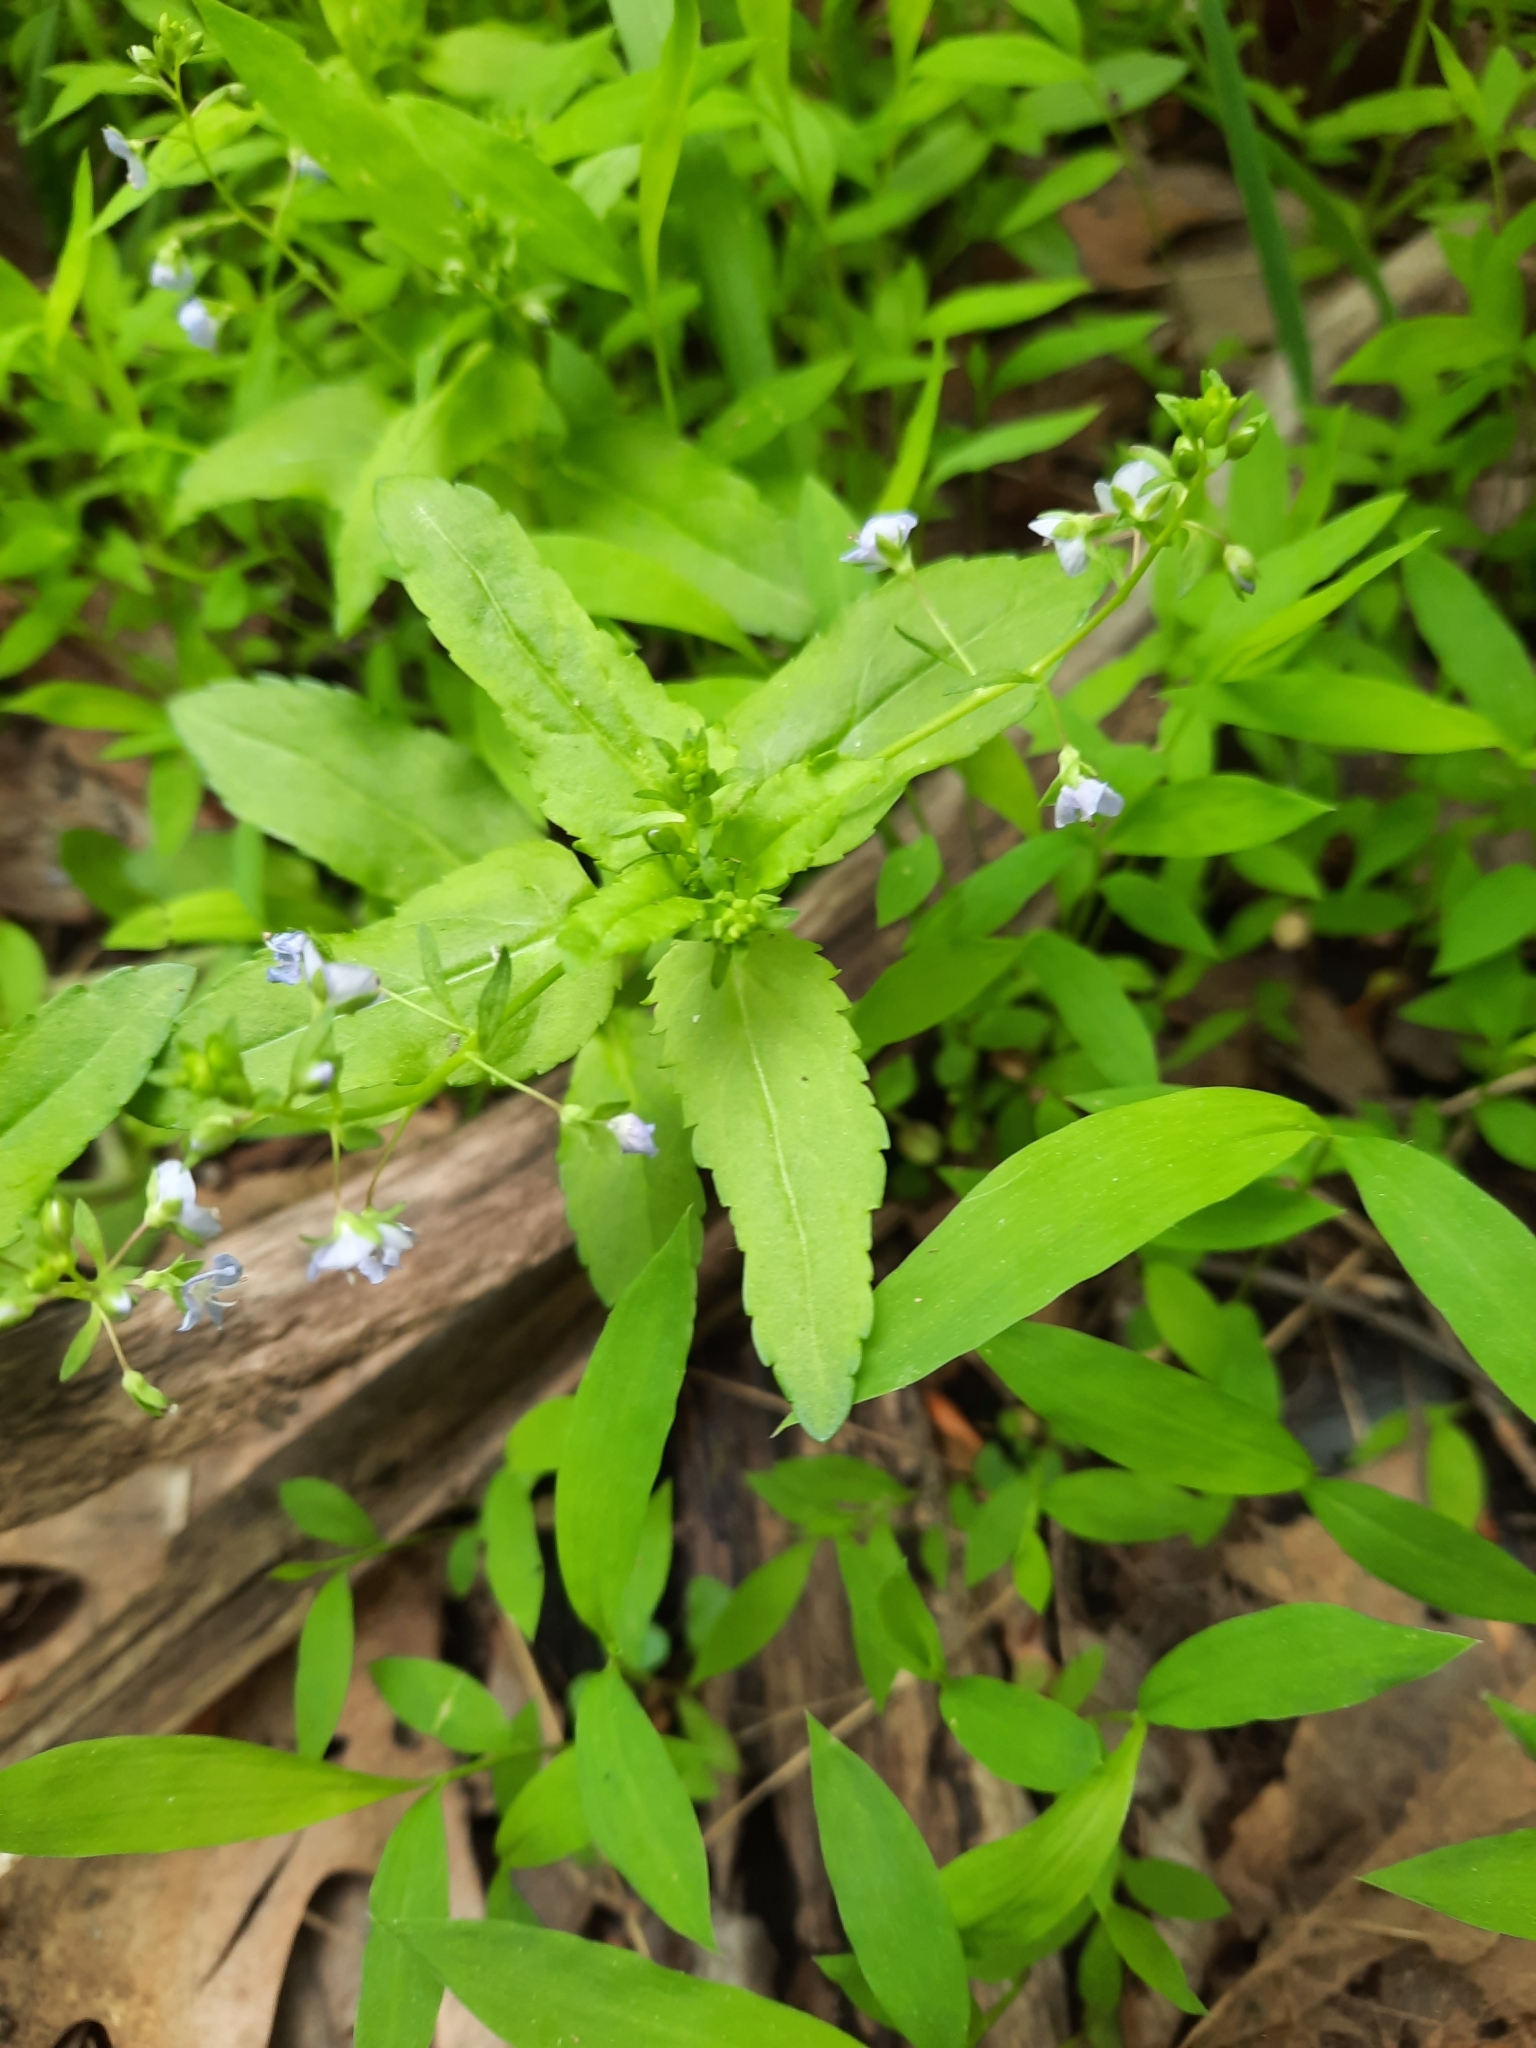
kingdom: Plantae
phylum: Tracheophyta
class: Magnoliopsida
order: Lamiales
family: Plantaginaceae
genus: Veronica
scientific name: Veronica americana
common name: American brooklime
